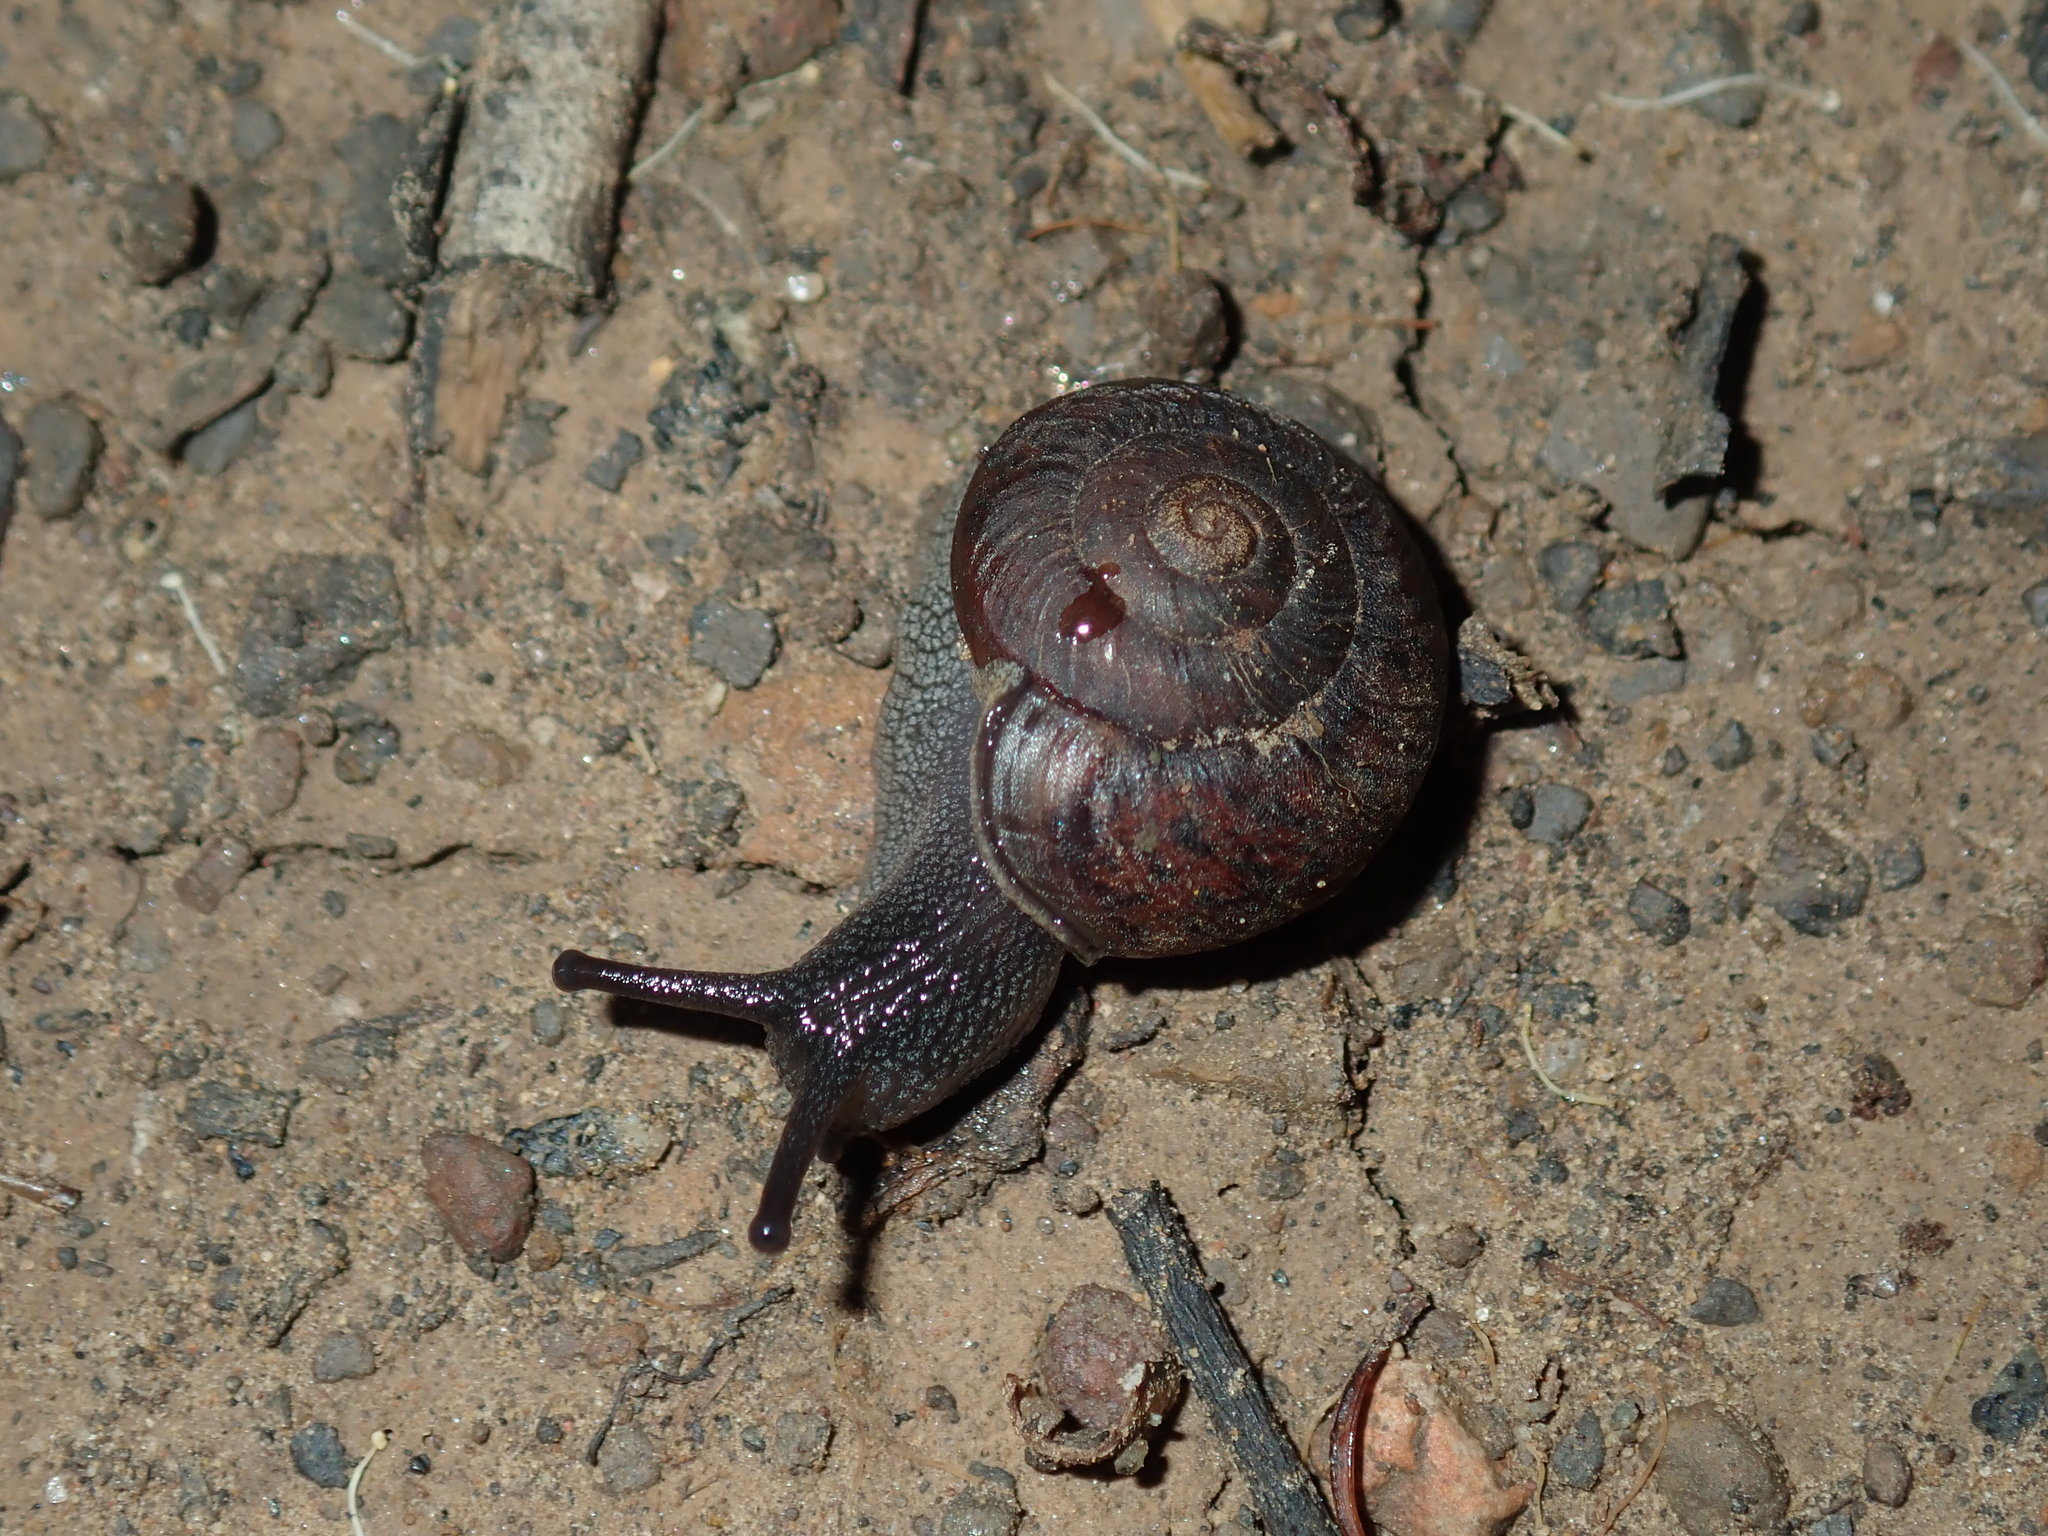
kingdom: Animalia
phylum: Mollusca
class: Gastropoda
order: Stylommatophora
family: Camaenidae
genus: Sauroconcha
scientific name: Sauroconcha sheai
